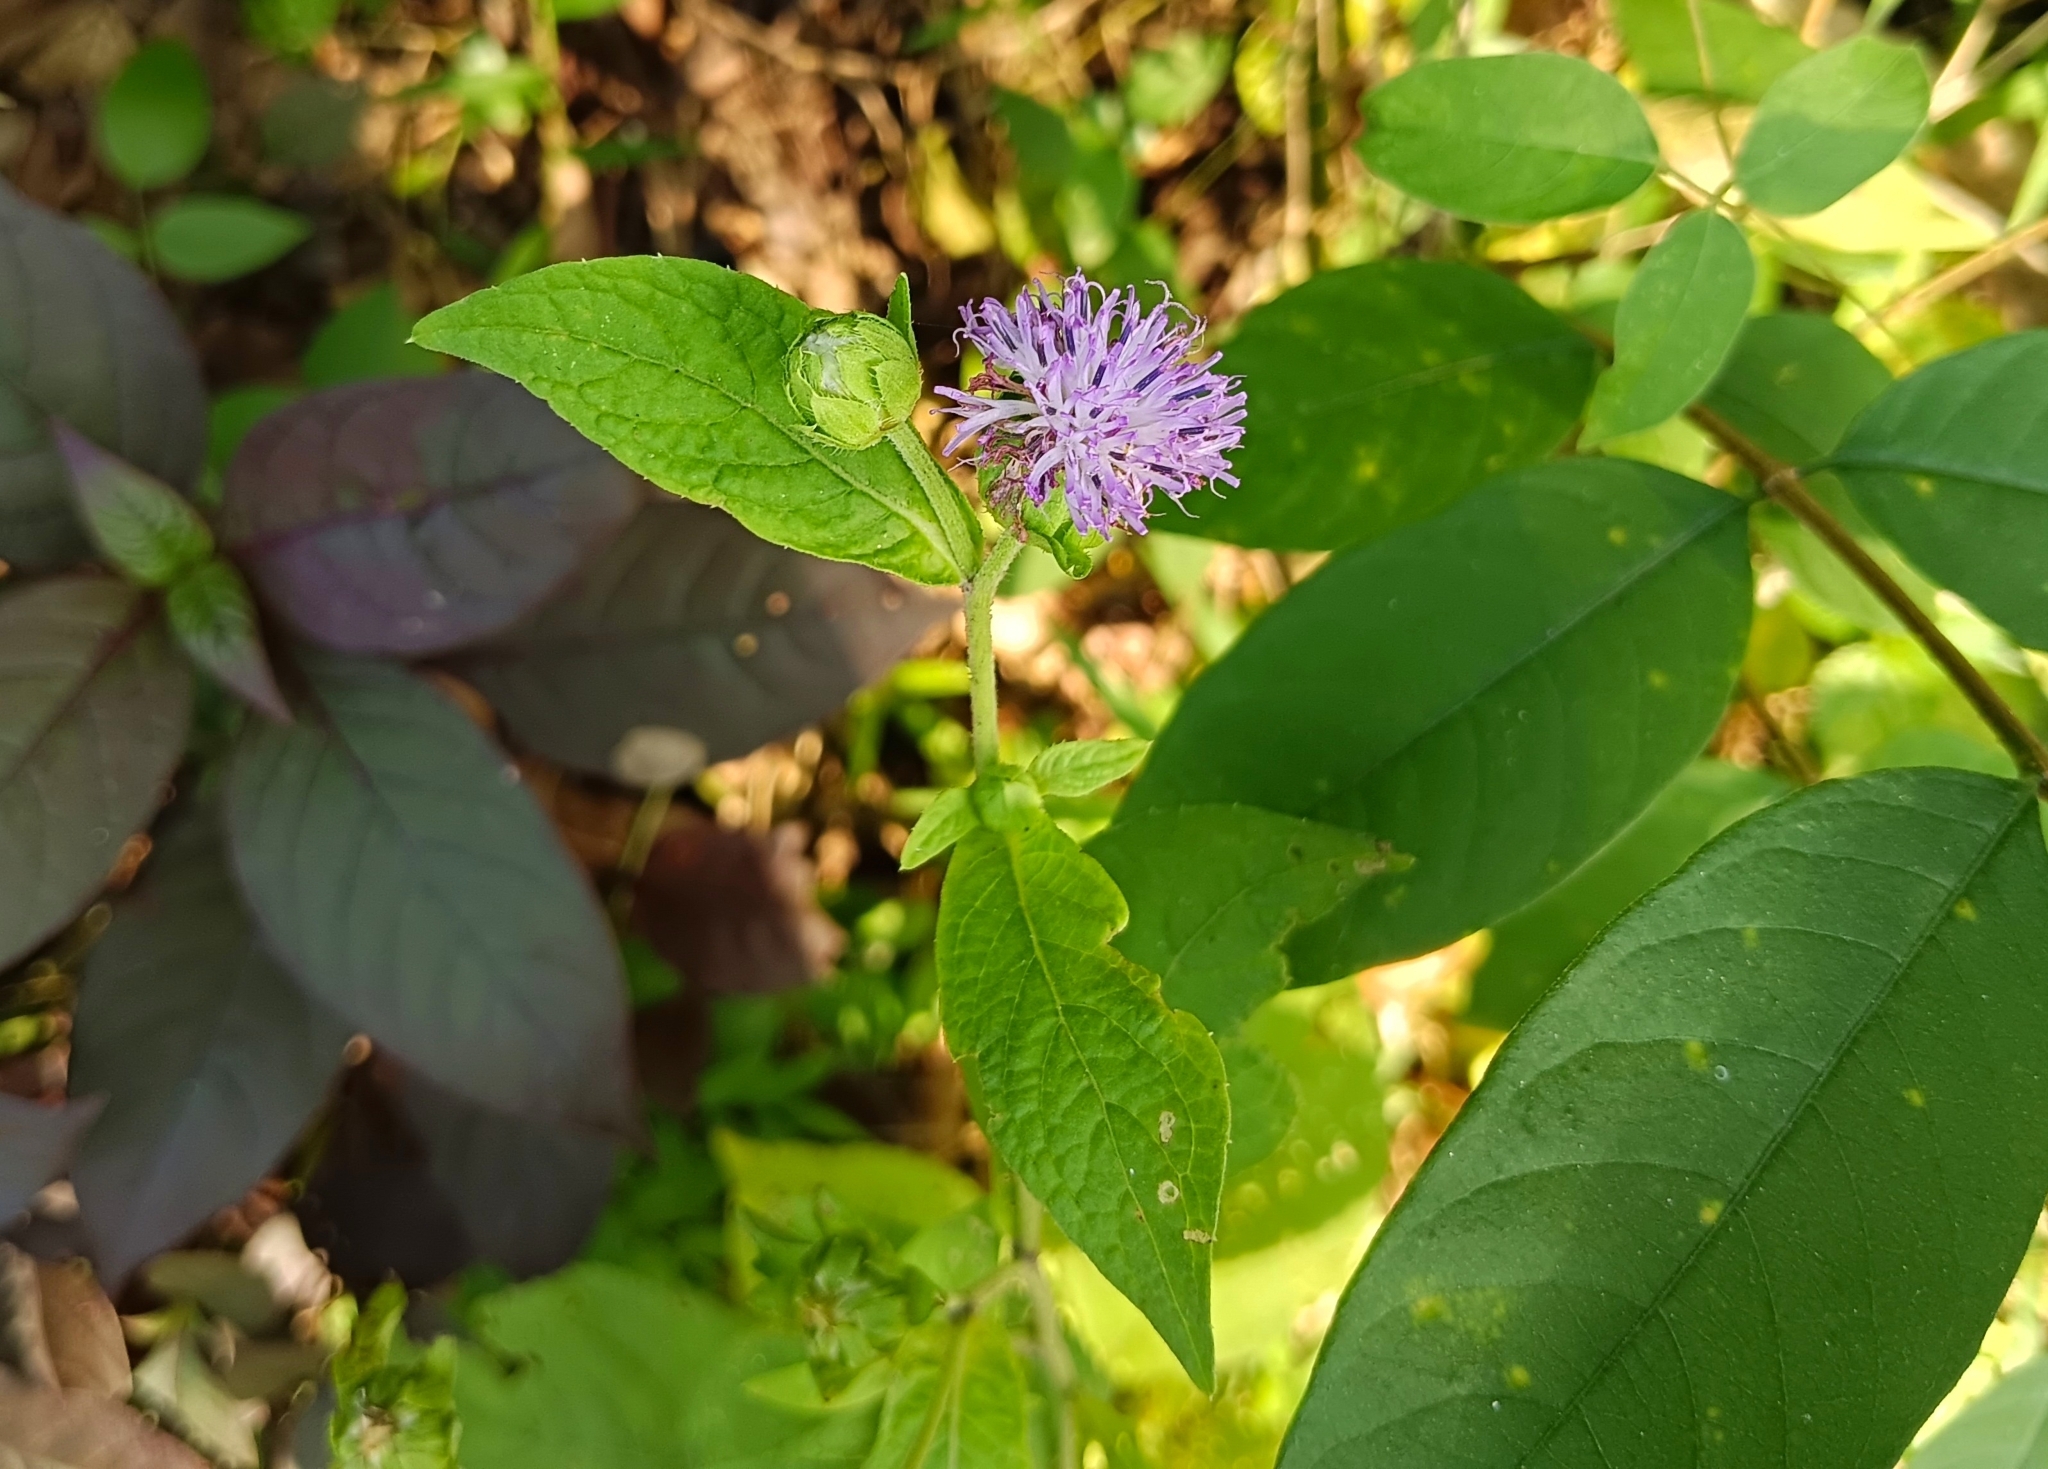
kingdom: Plantae
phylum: Tracheophyta
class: Magnoliopsida
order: Asterales
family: Asteraceae
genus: Centratherum
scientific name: Centratherum punctatum
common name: Larkdaisy
